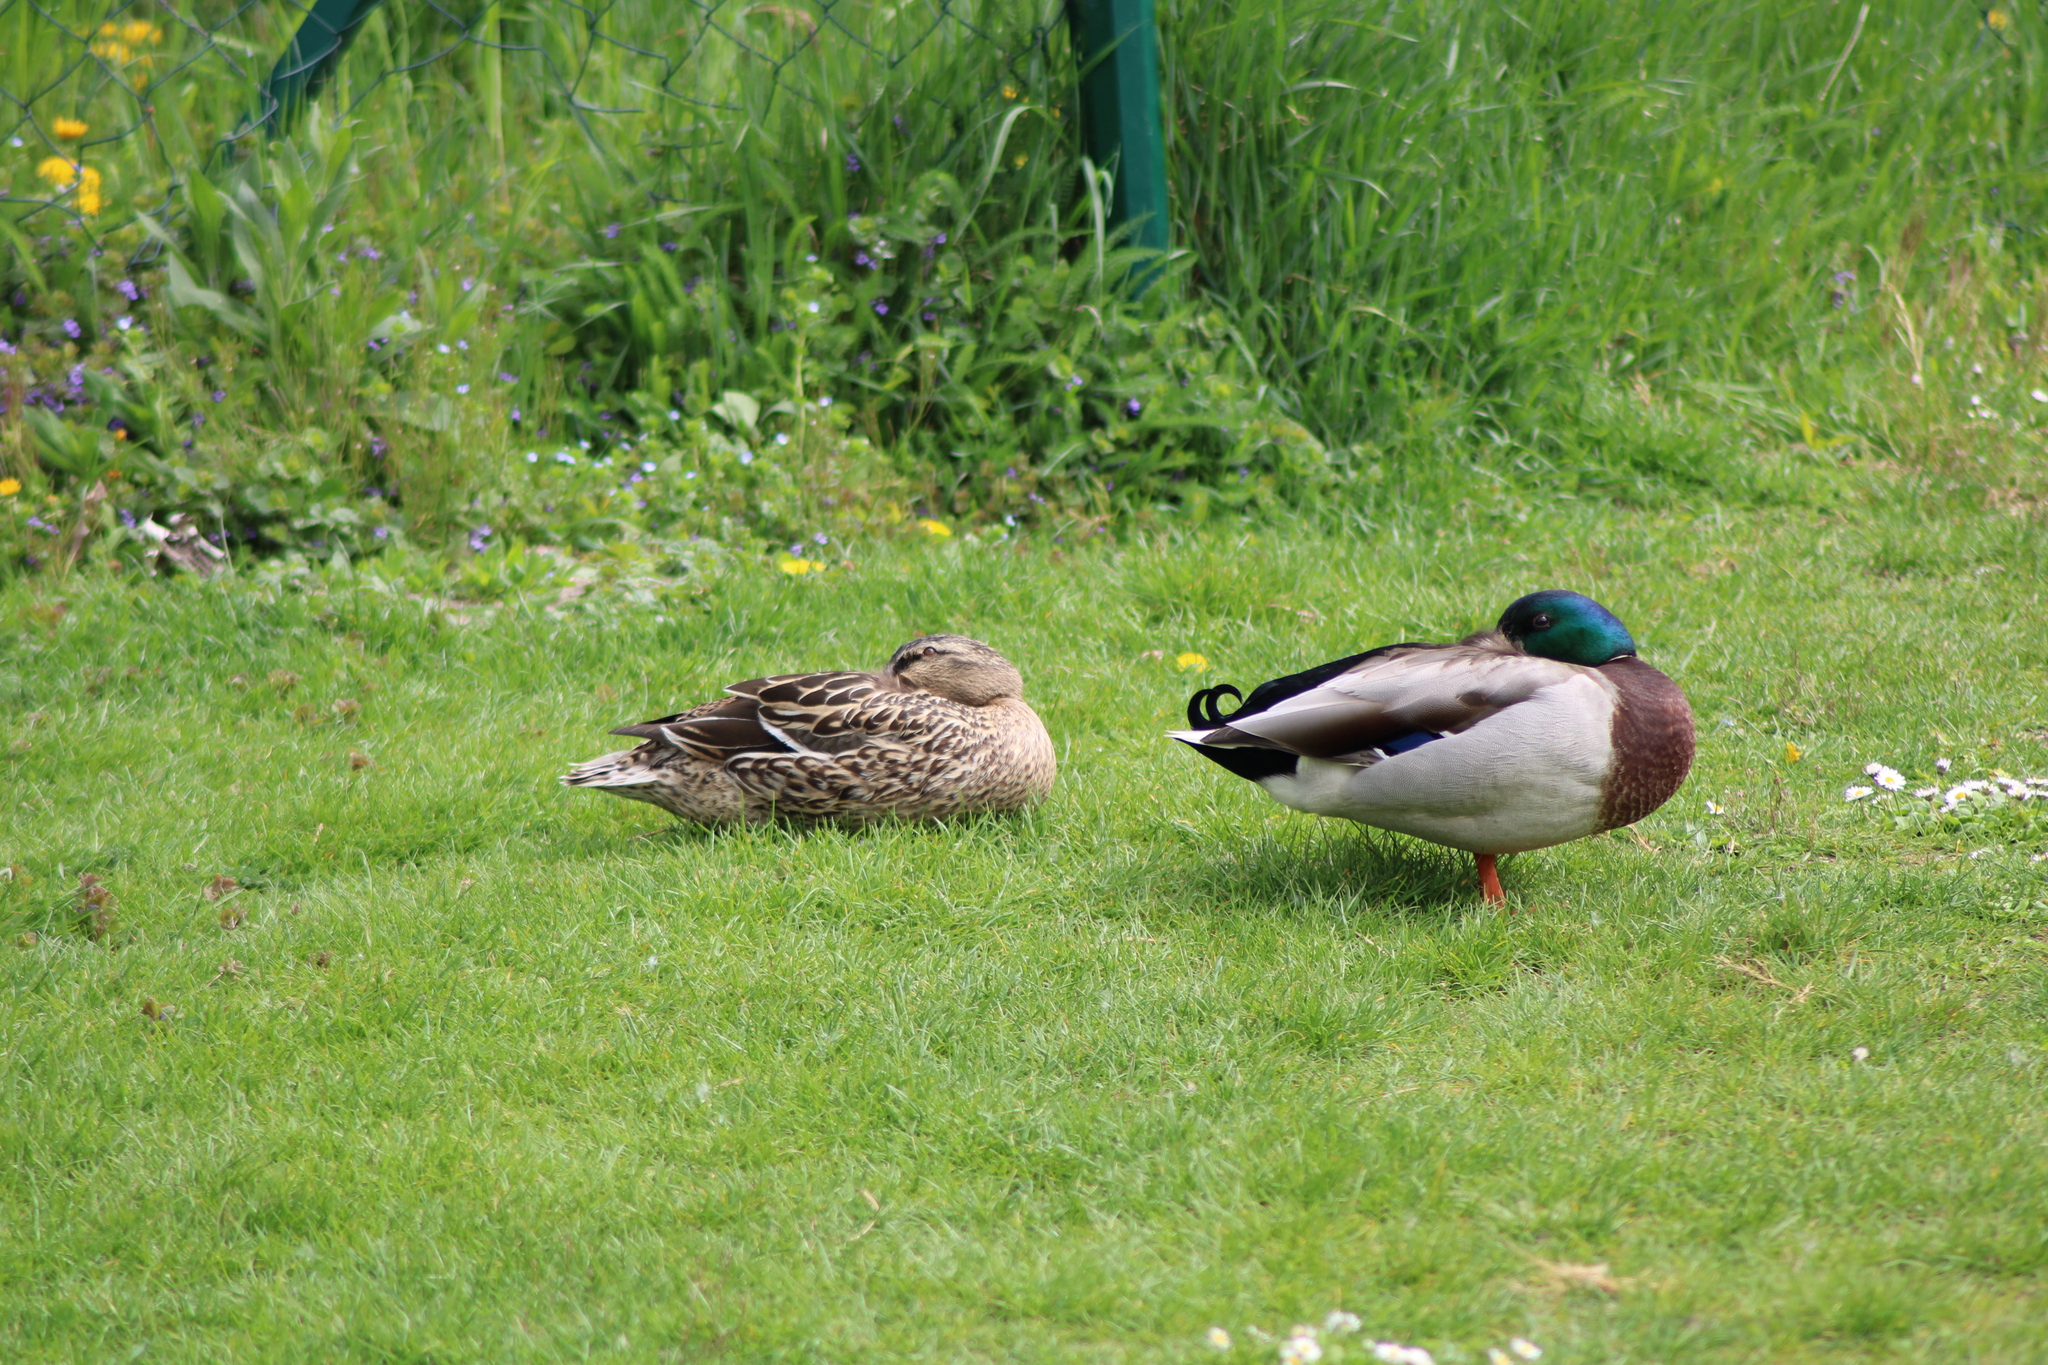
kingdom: Animalia
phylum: Chordata
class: Aves
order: Anseriformes
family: Anatidae
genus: Anas
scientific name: Anas platyrhynchos
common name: Mallard
